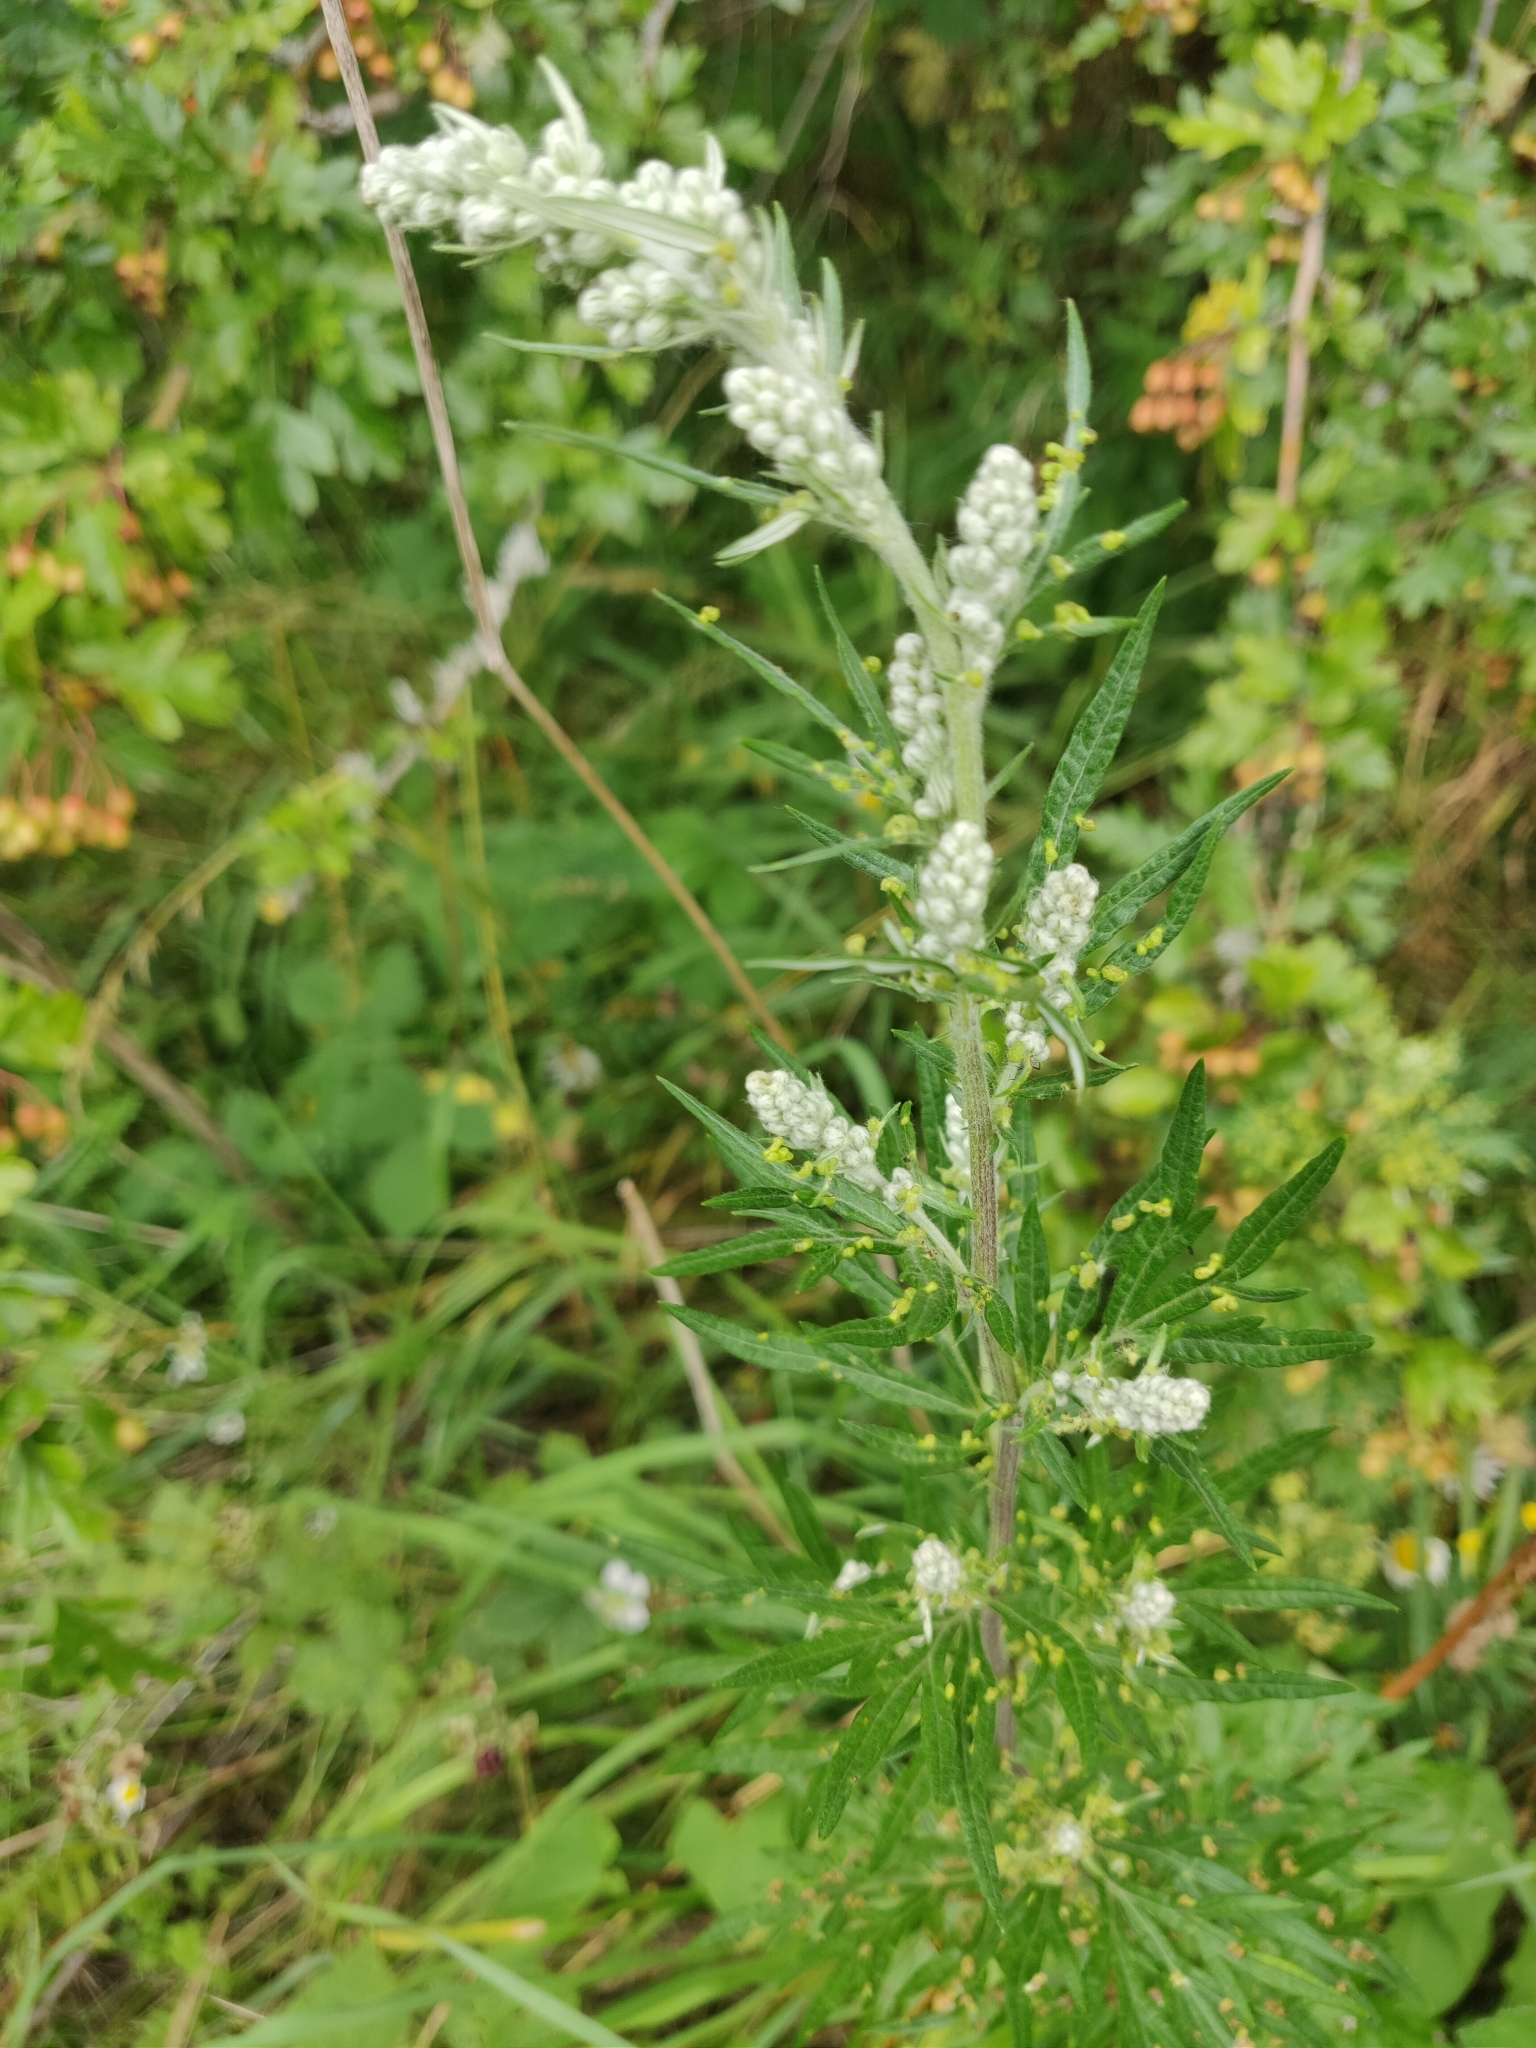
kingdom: Plantae
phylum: Tracheophyta
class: Magnoliopsida
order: Asterales
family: Asteraceae
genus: Artemisia
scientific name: Artemisia vulgaris
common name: Mugwort
